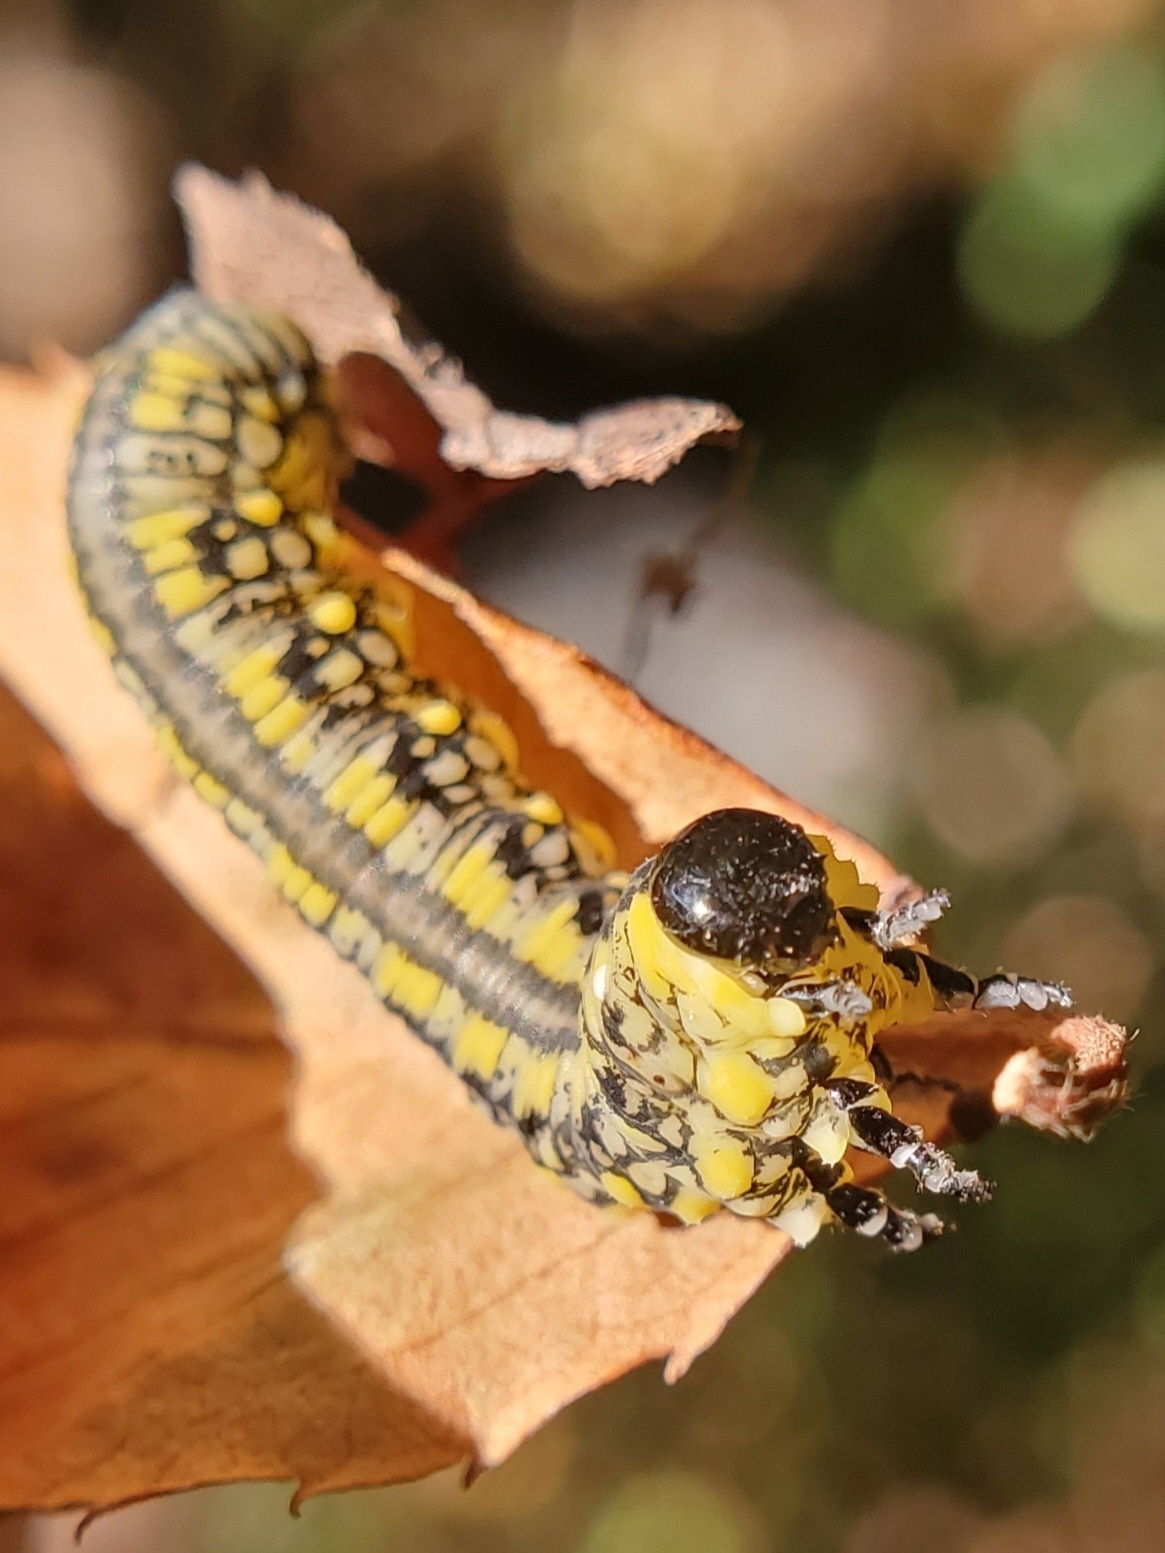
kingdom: Animalia
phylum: Arthropoda
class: Insecta
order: Hymenoptera
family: Diprionidae
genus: Diprion
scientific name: Diprion similis
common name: Pine sawfly
